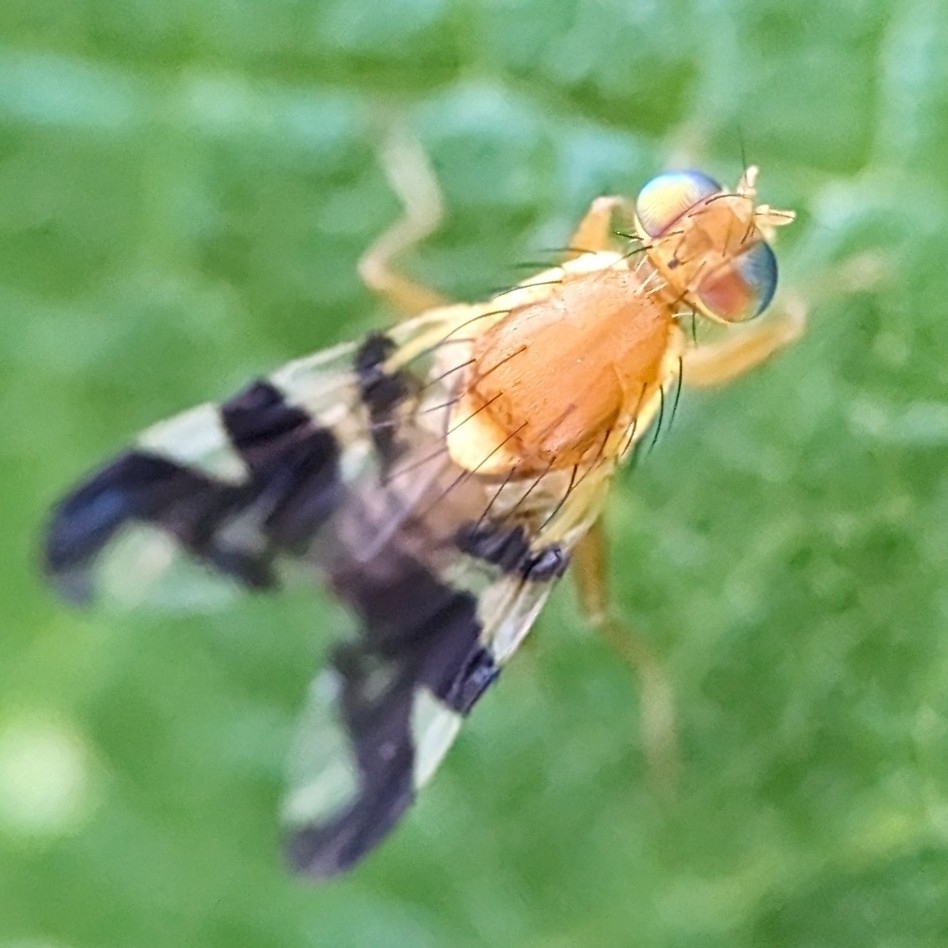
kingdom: Animalia
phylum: Arthropoda
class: Insecta
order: Diptera
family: Tephritidae
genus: Rhagoletis
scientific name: Rhagoletis suavis
